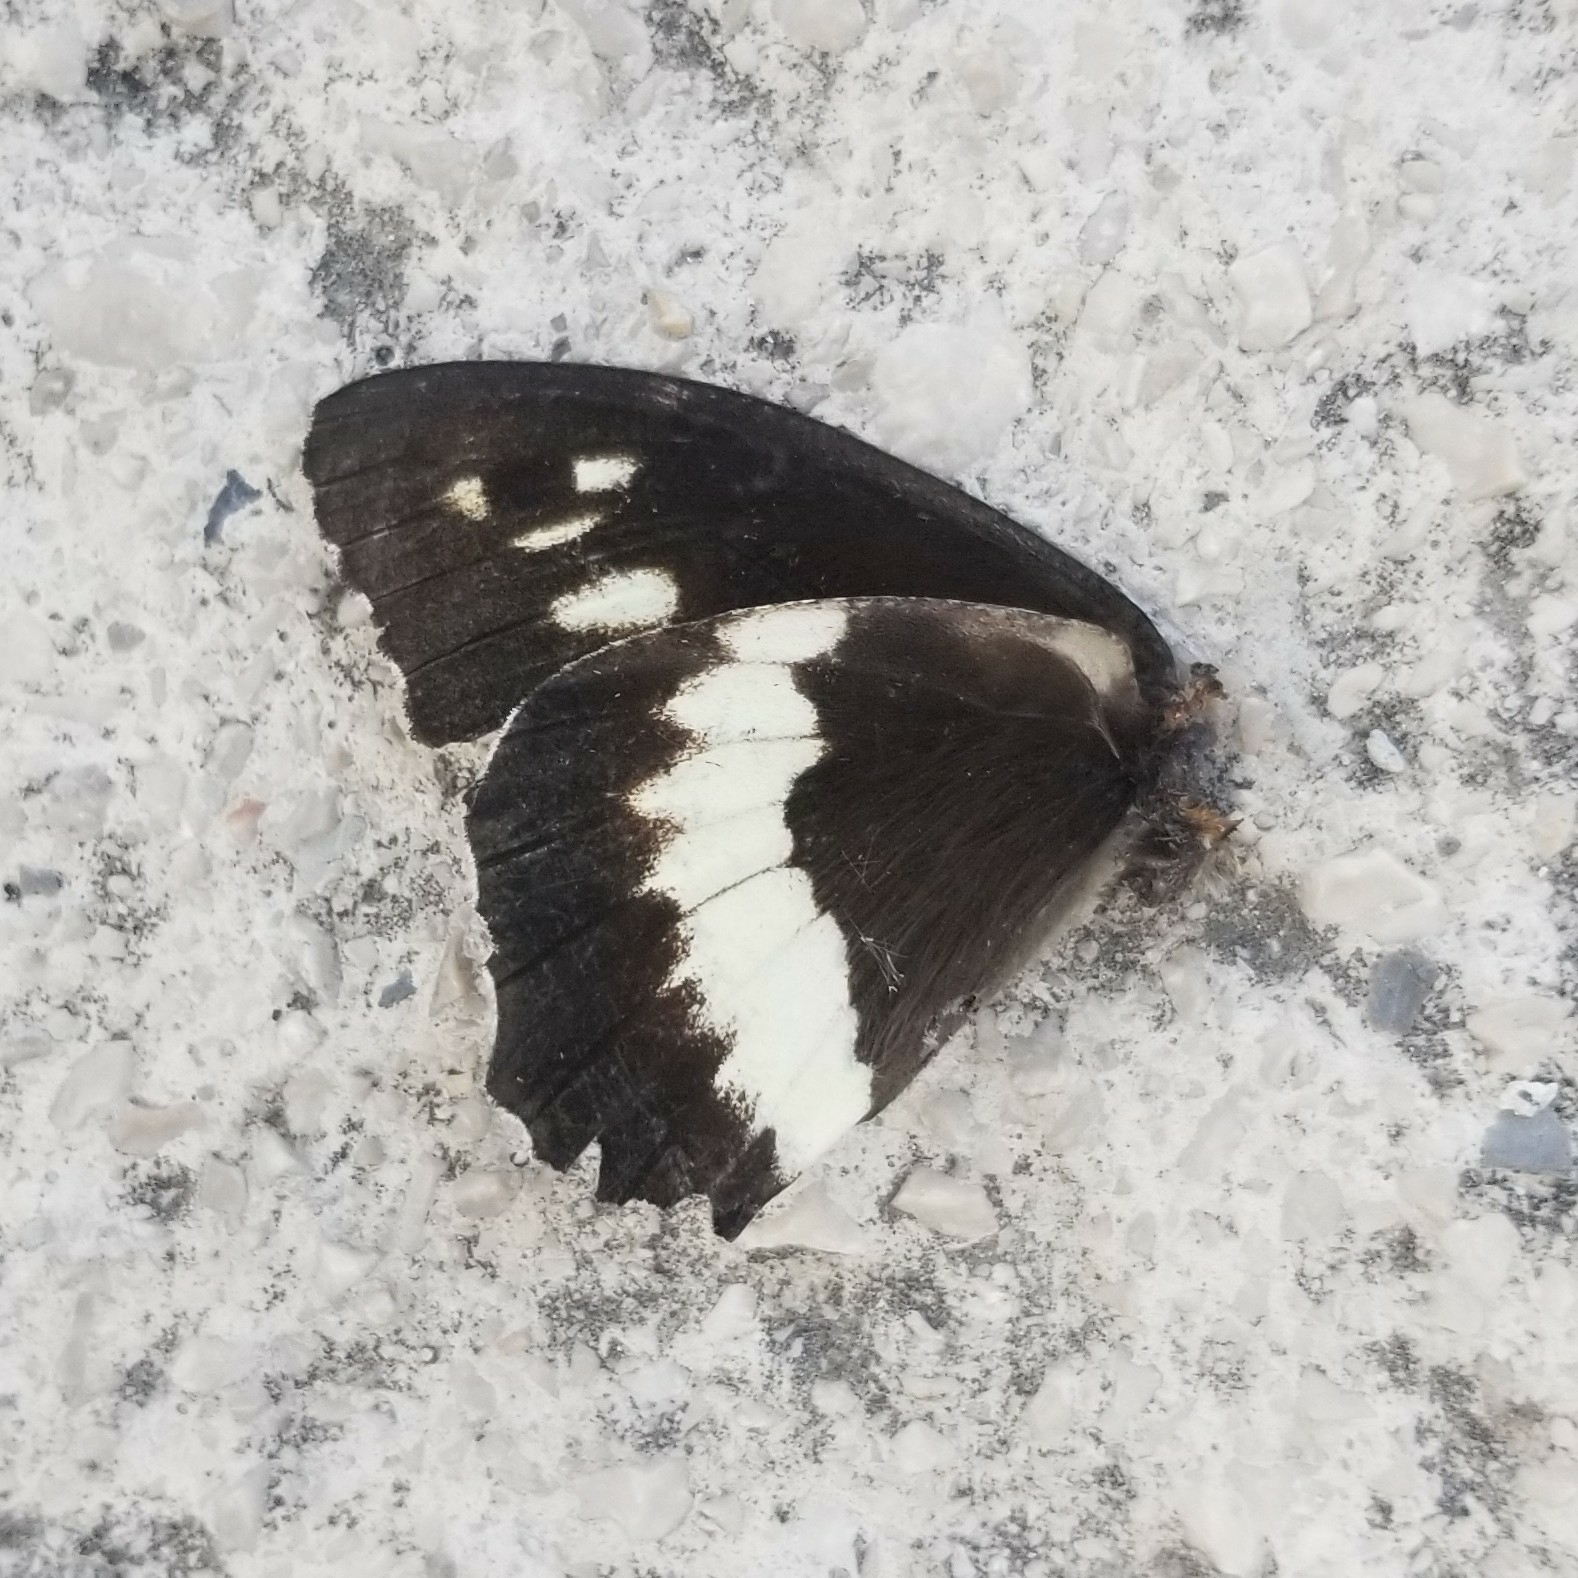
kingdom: Animalia
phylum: Arthropoda
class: Insecta
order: Lepidoptera
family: Lycaenidae
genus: Loweia
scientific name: Loweia tityrus
